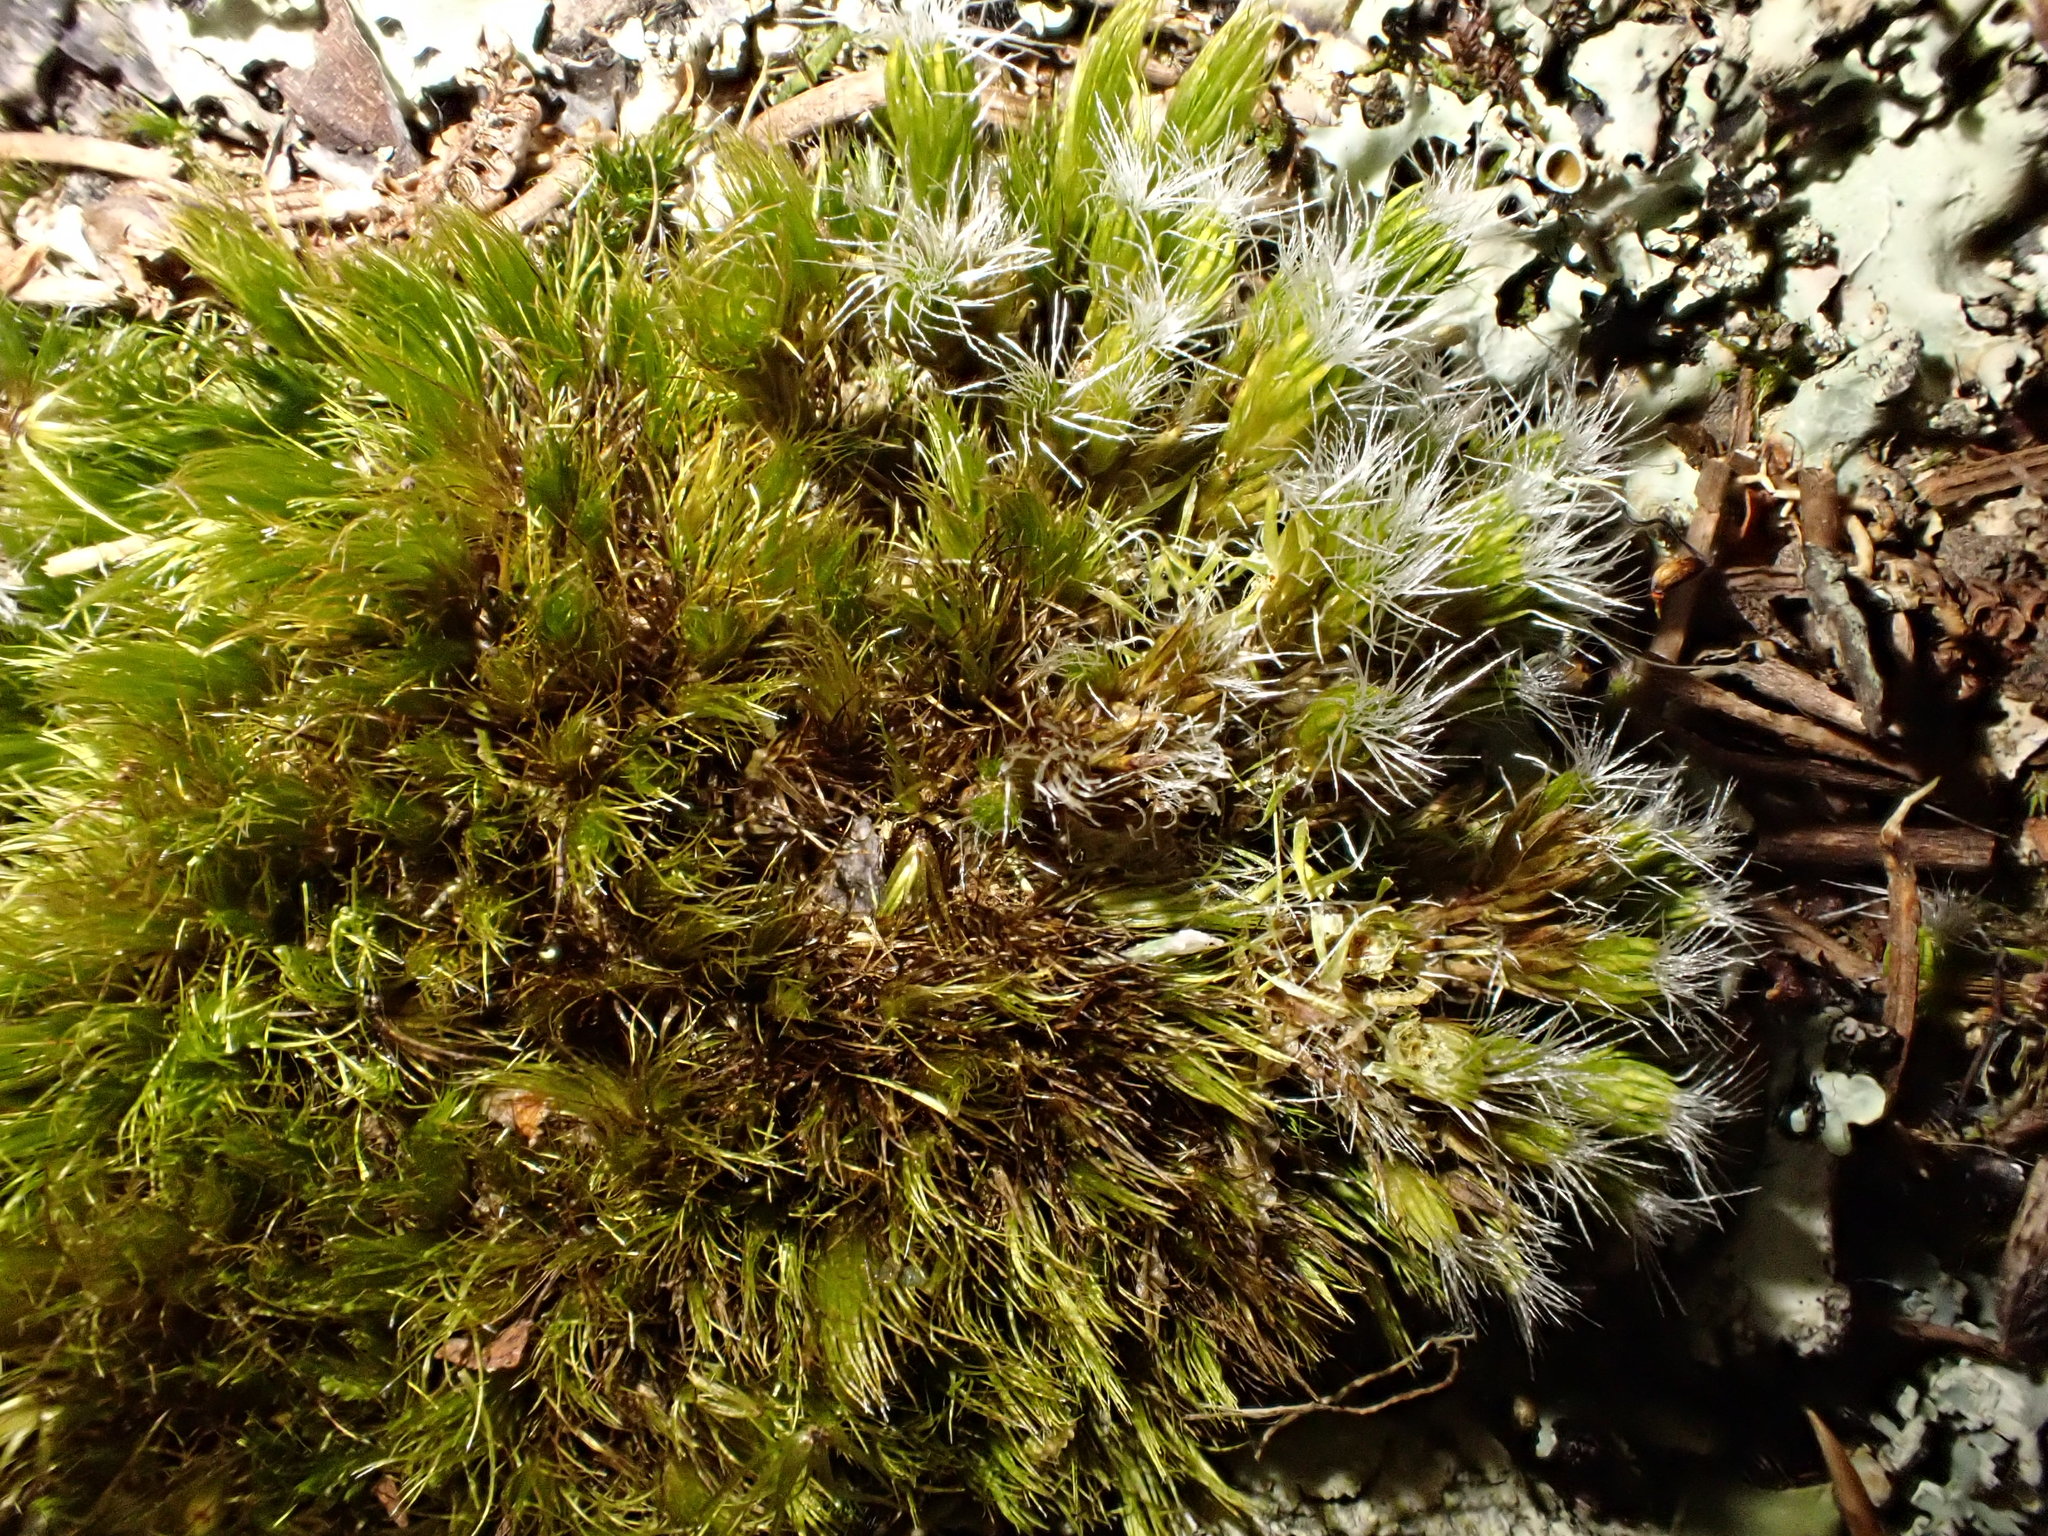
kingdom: Plantae
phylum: Bryophyta
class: Bryopsida
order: Dicranales
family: Leucobryaceae
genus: Campylopus
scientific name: Campylopus introflexus
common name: Heath star moss
